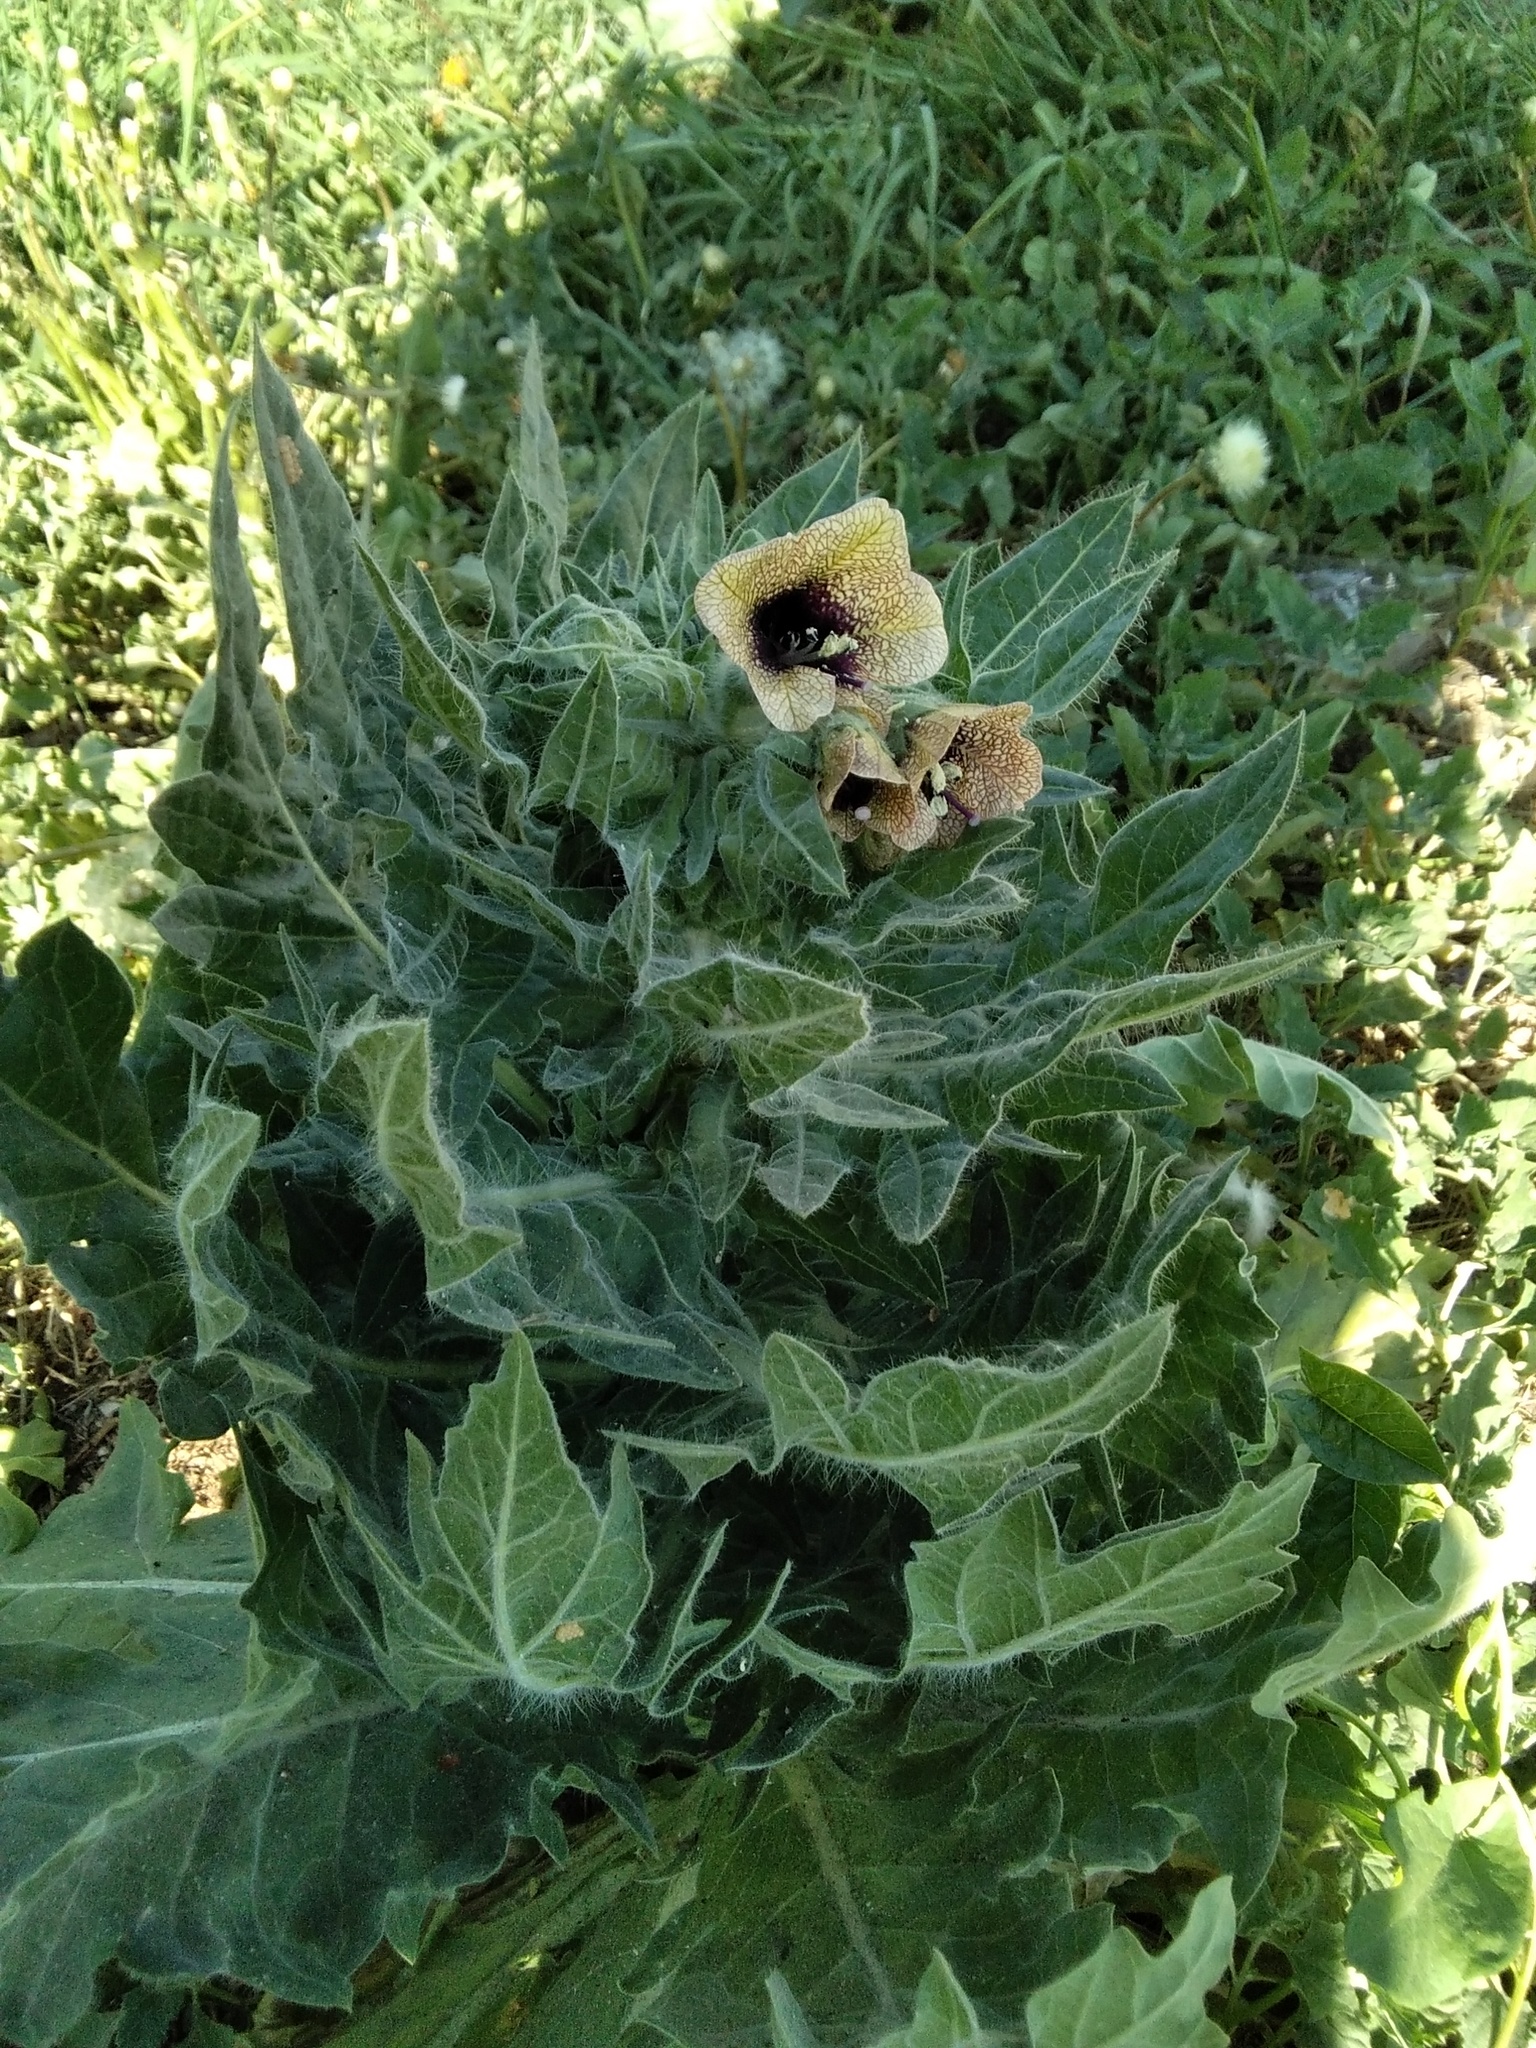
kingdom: Plantae
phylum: Tracheophyta
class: Magnoliopsida
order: Solanales
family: Solanaceae
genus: Hyoscyamus
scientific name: Hyoscyamus niger
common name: Henbane
